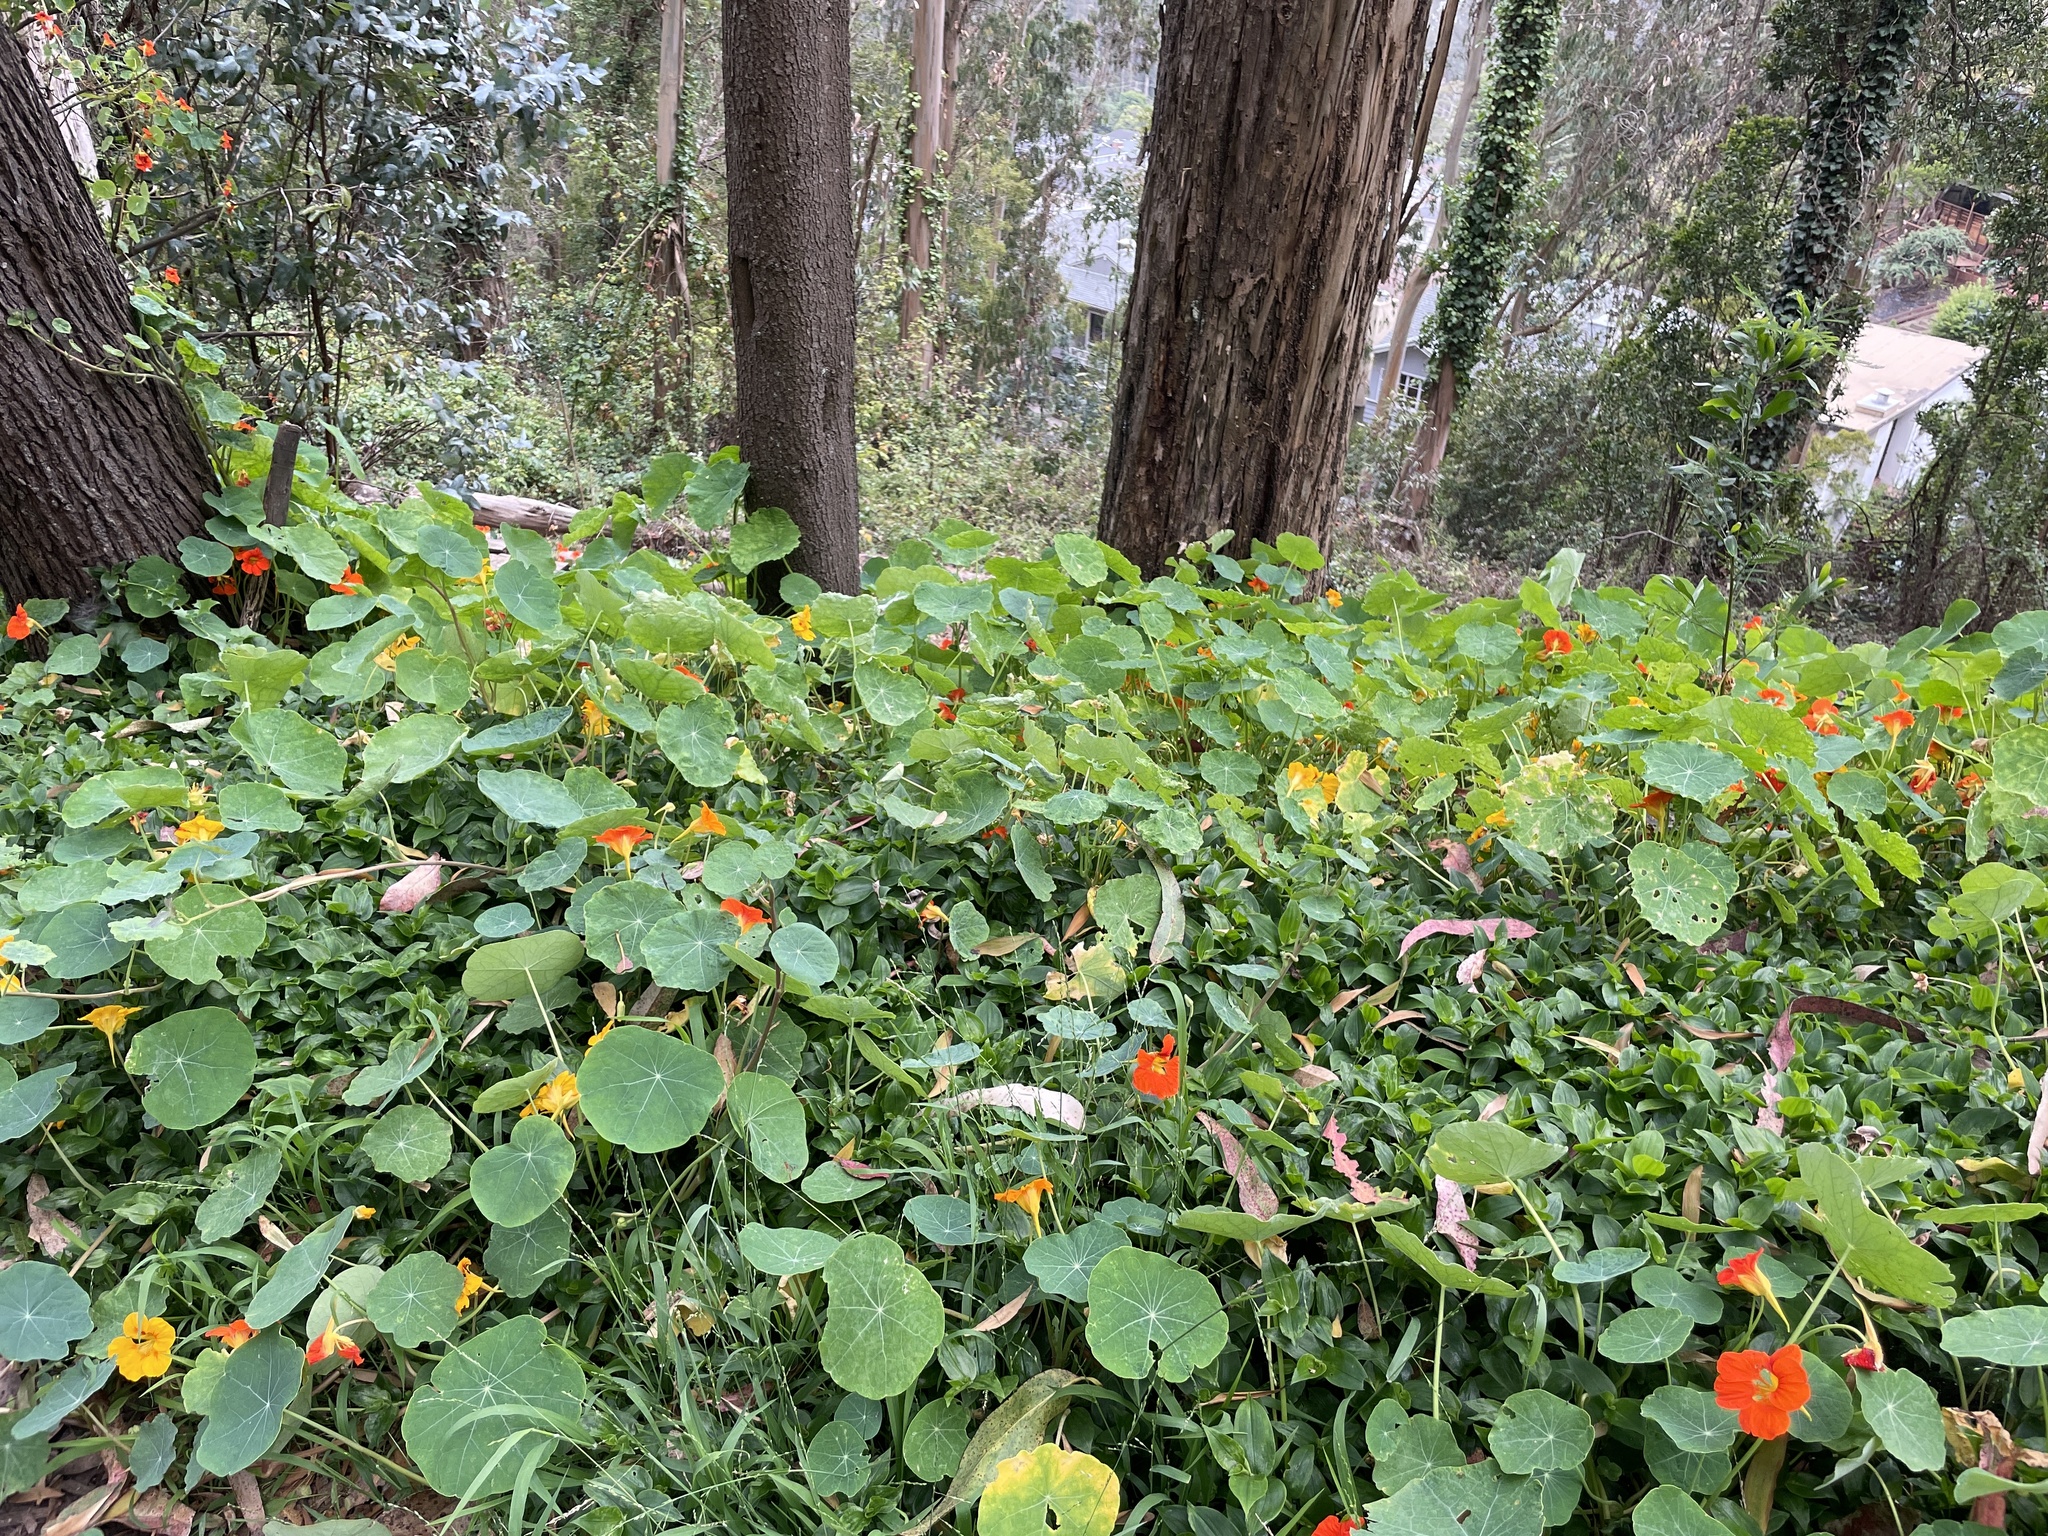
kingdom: Plantae
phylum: Tracheophyta
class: Magnoliopsida
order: Brassicales
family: Tropaeolaceae
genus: Tropaeolum
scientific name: Tropaeolum majus
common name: Nasturtium
